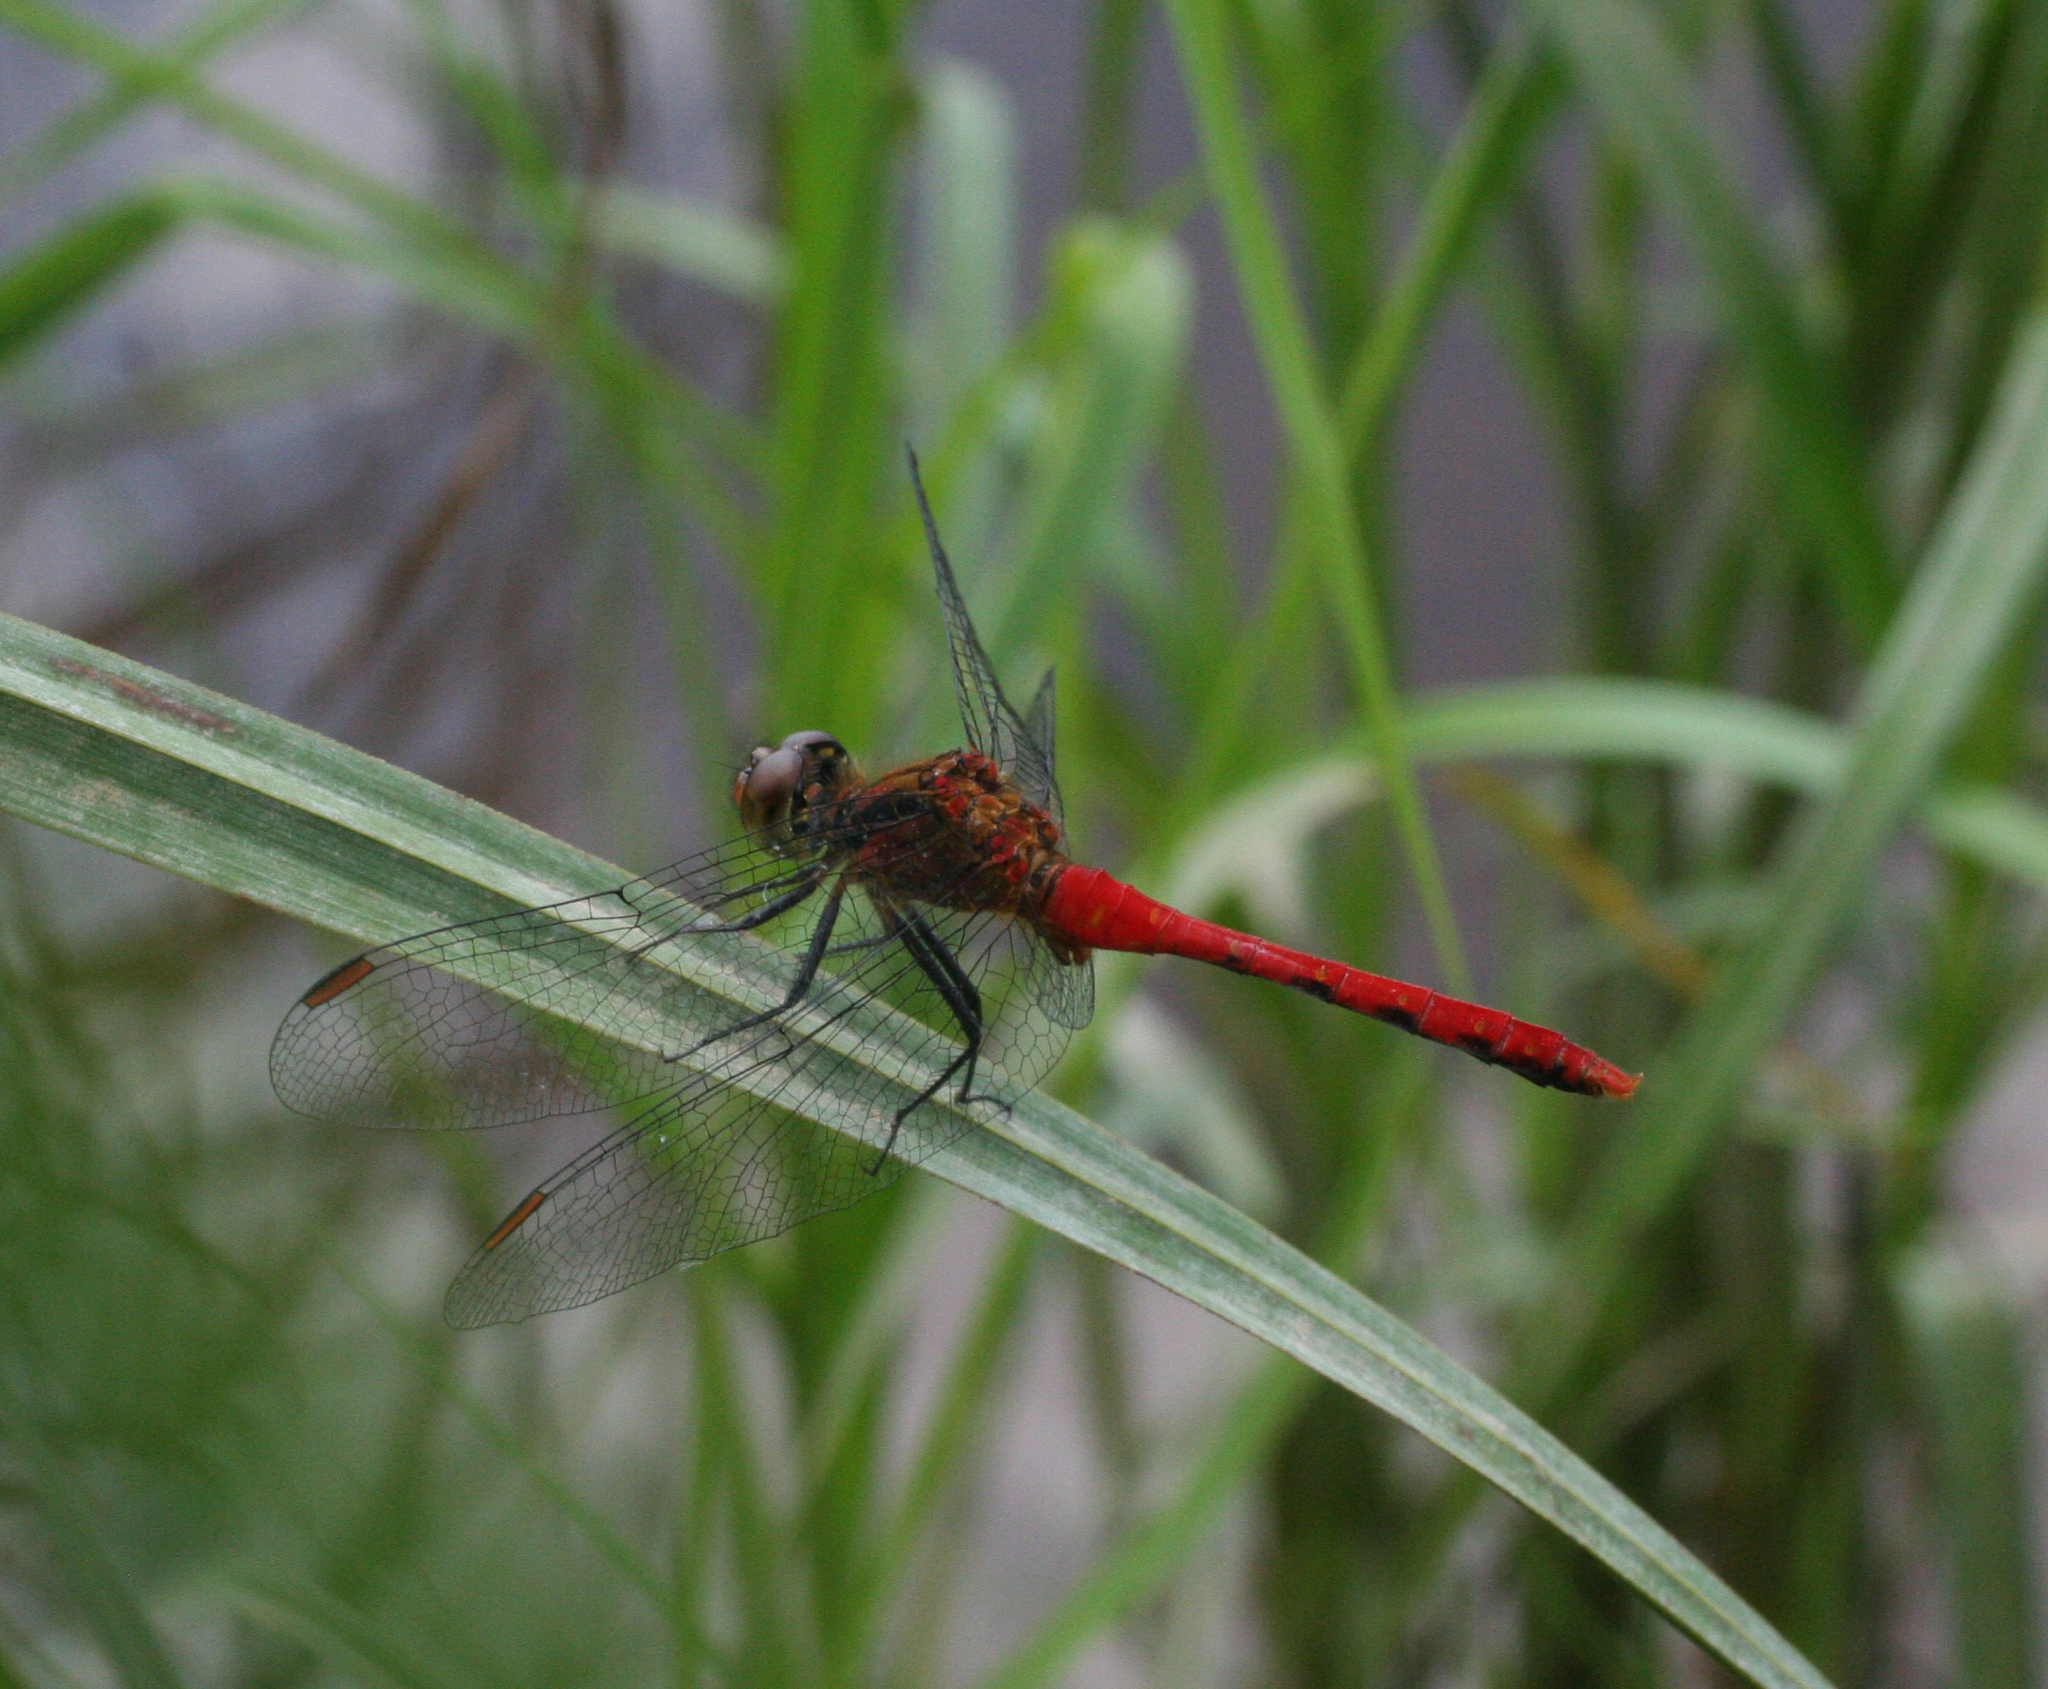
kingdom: Animalia
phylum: Arthropoda
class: Insecta
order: Odonata
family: Libellulidae
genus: Sympetrum
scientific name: Sympetrum eroticum
